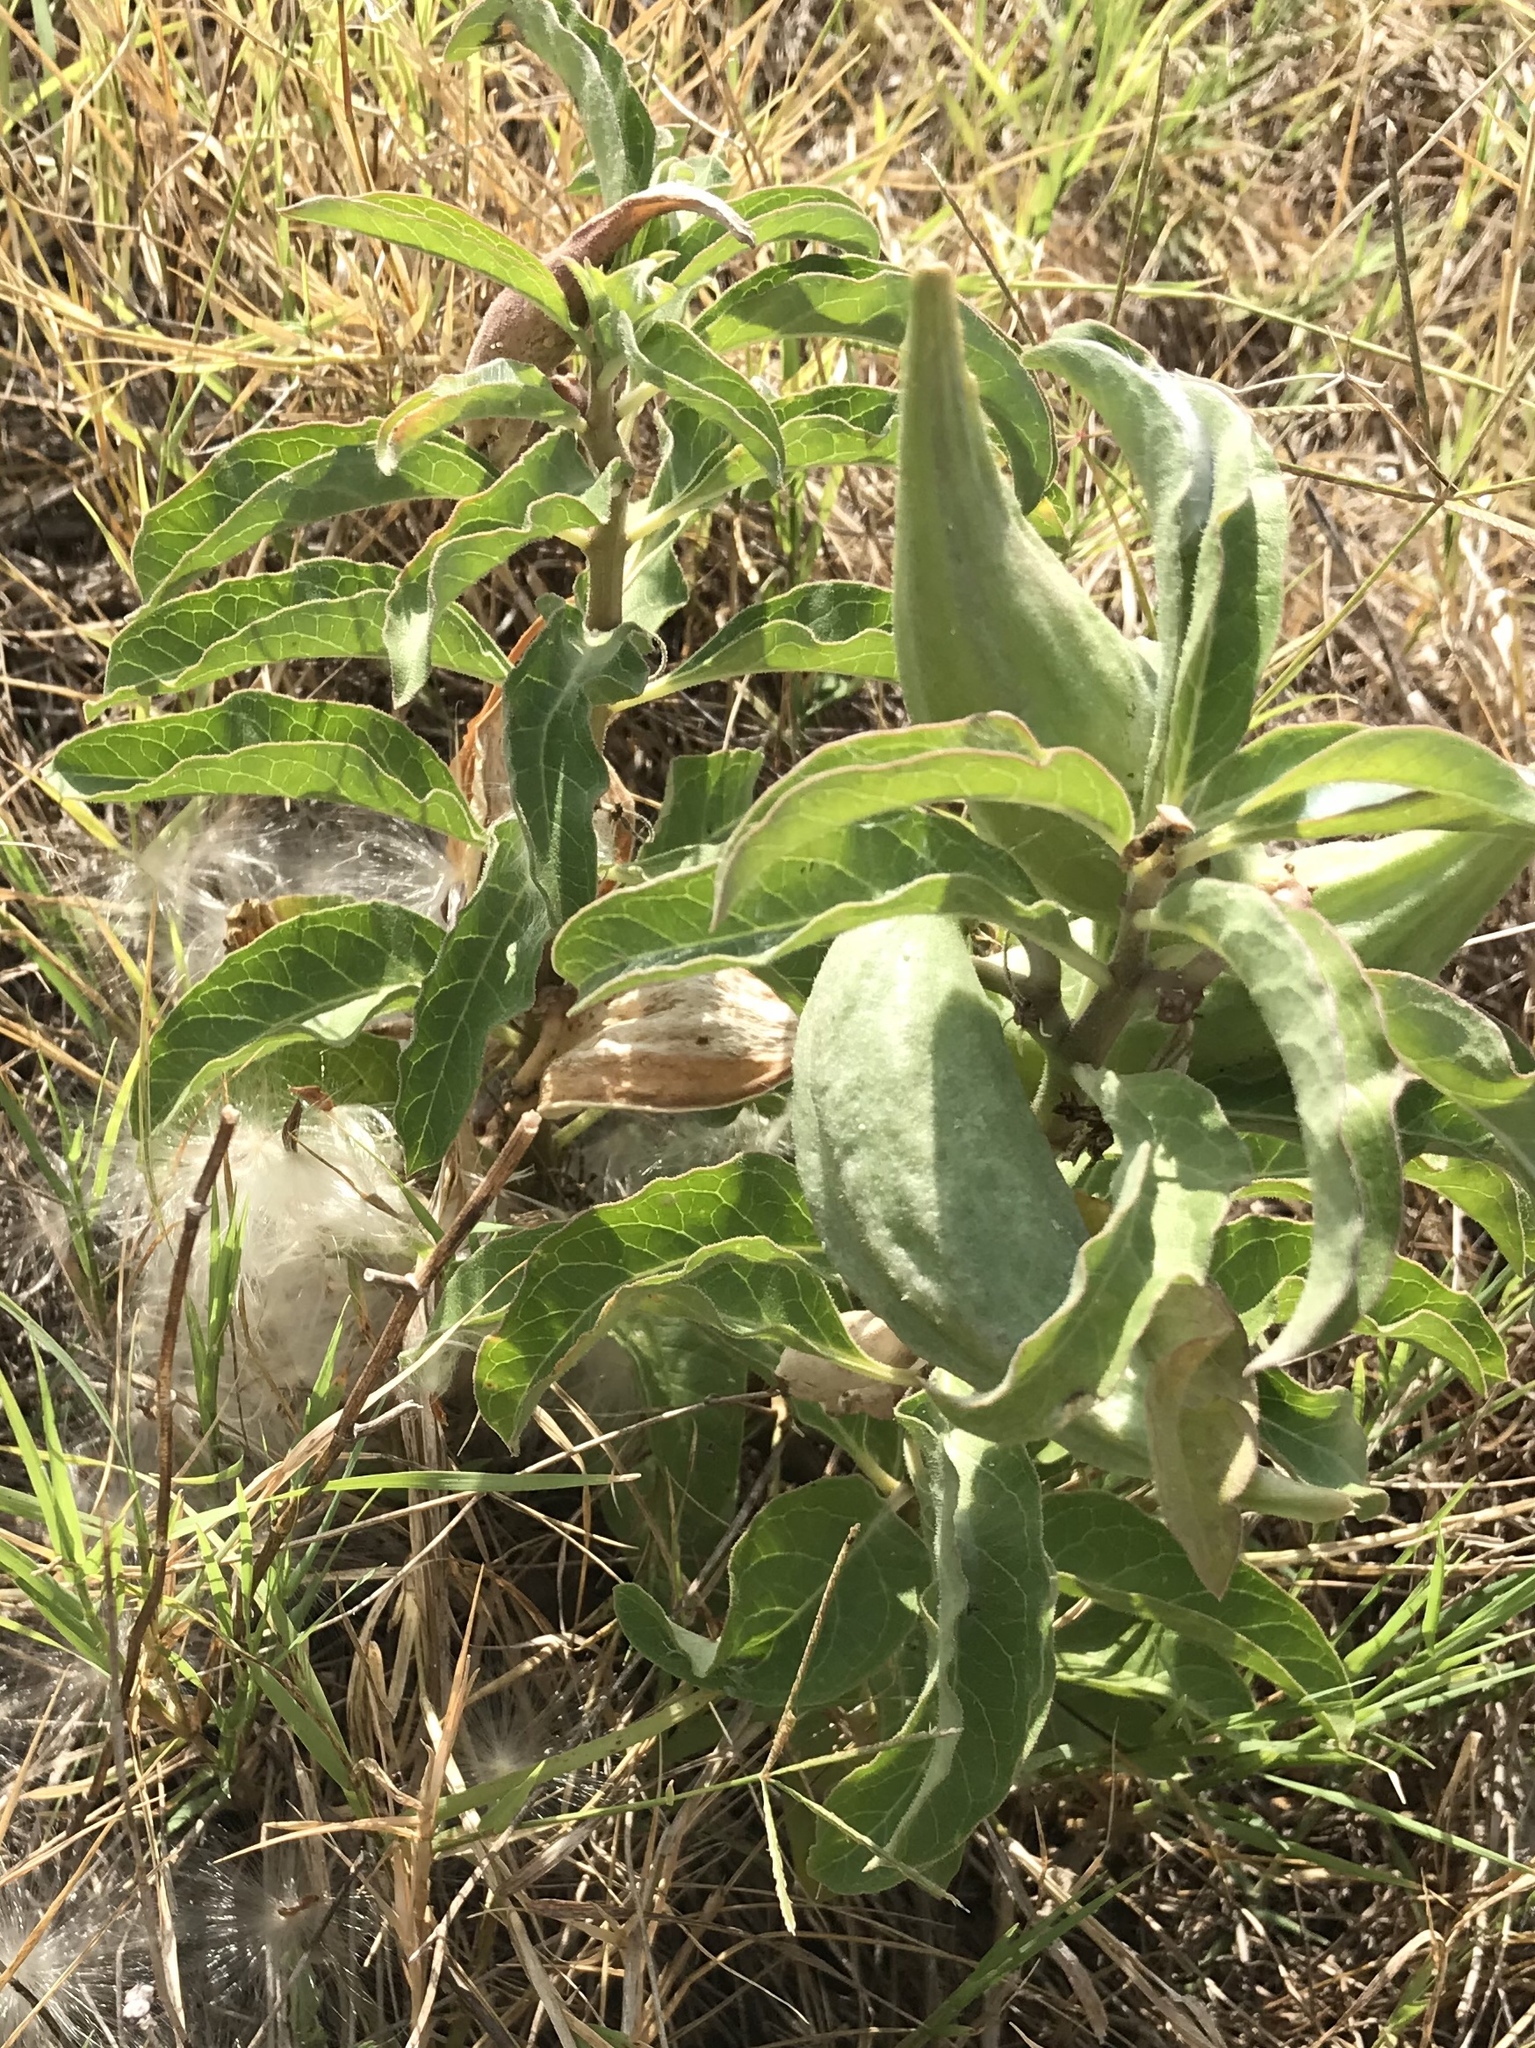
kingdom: Plantae
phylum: Tracheophyta
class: Magnoliopsida
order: Gentianales
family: Apocynaceae
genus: Asclepias
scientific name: Asclepias oenotheroides
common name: Zizotes milkweed
